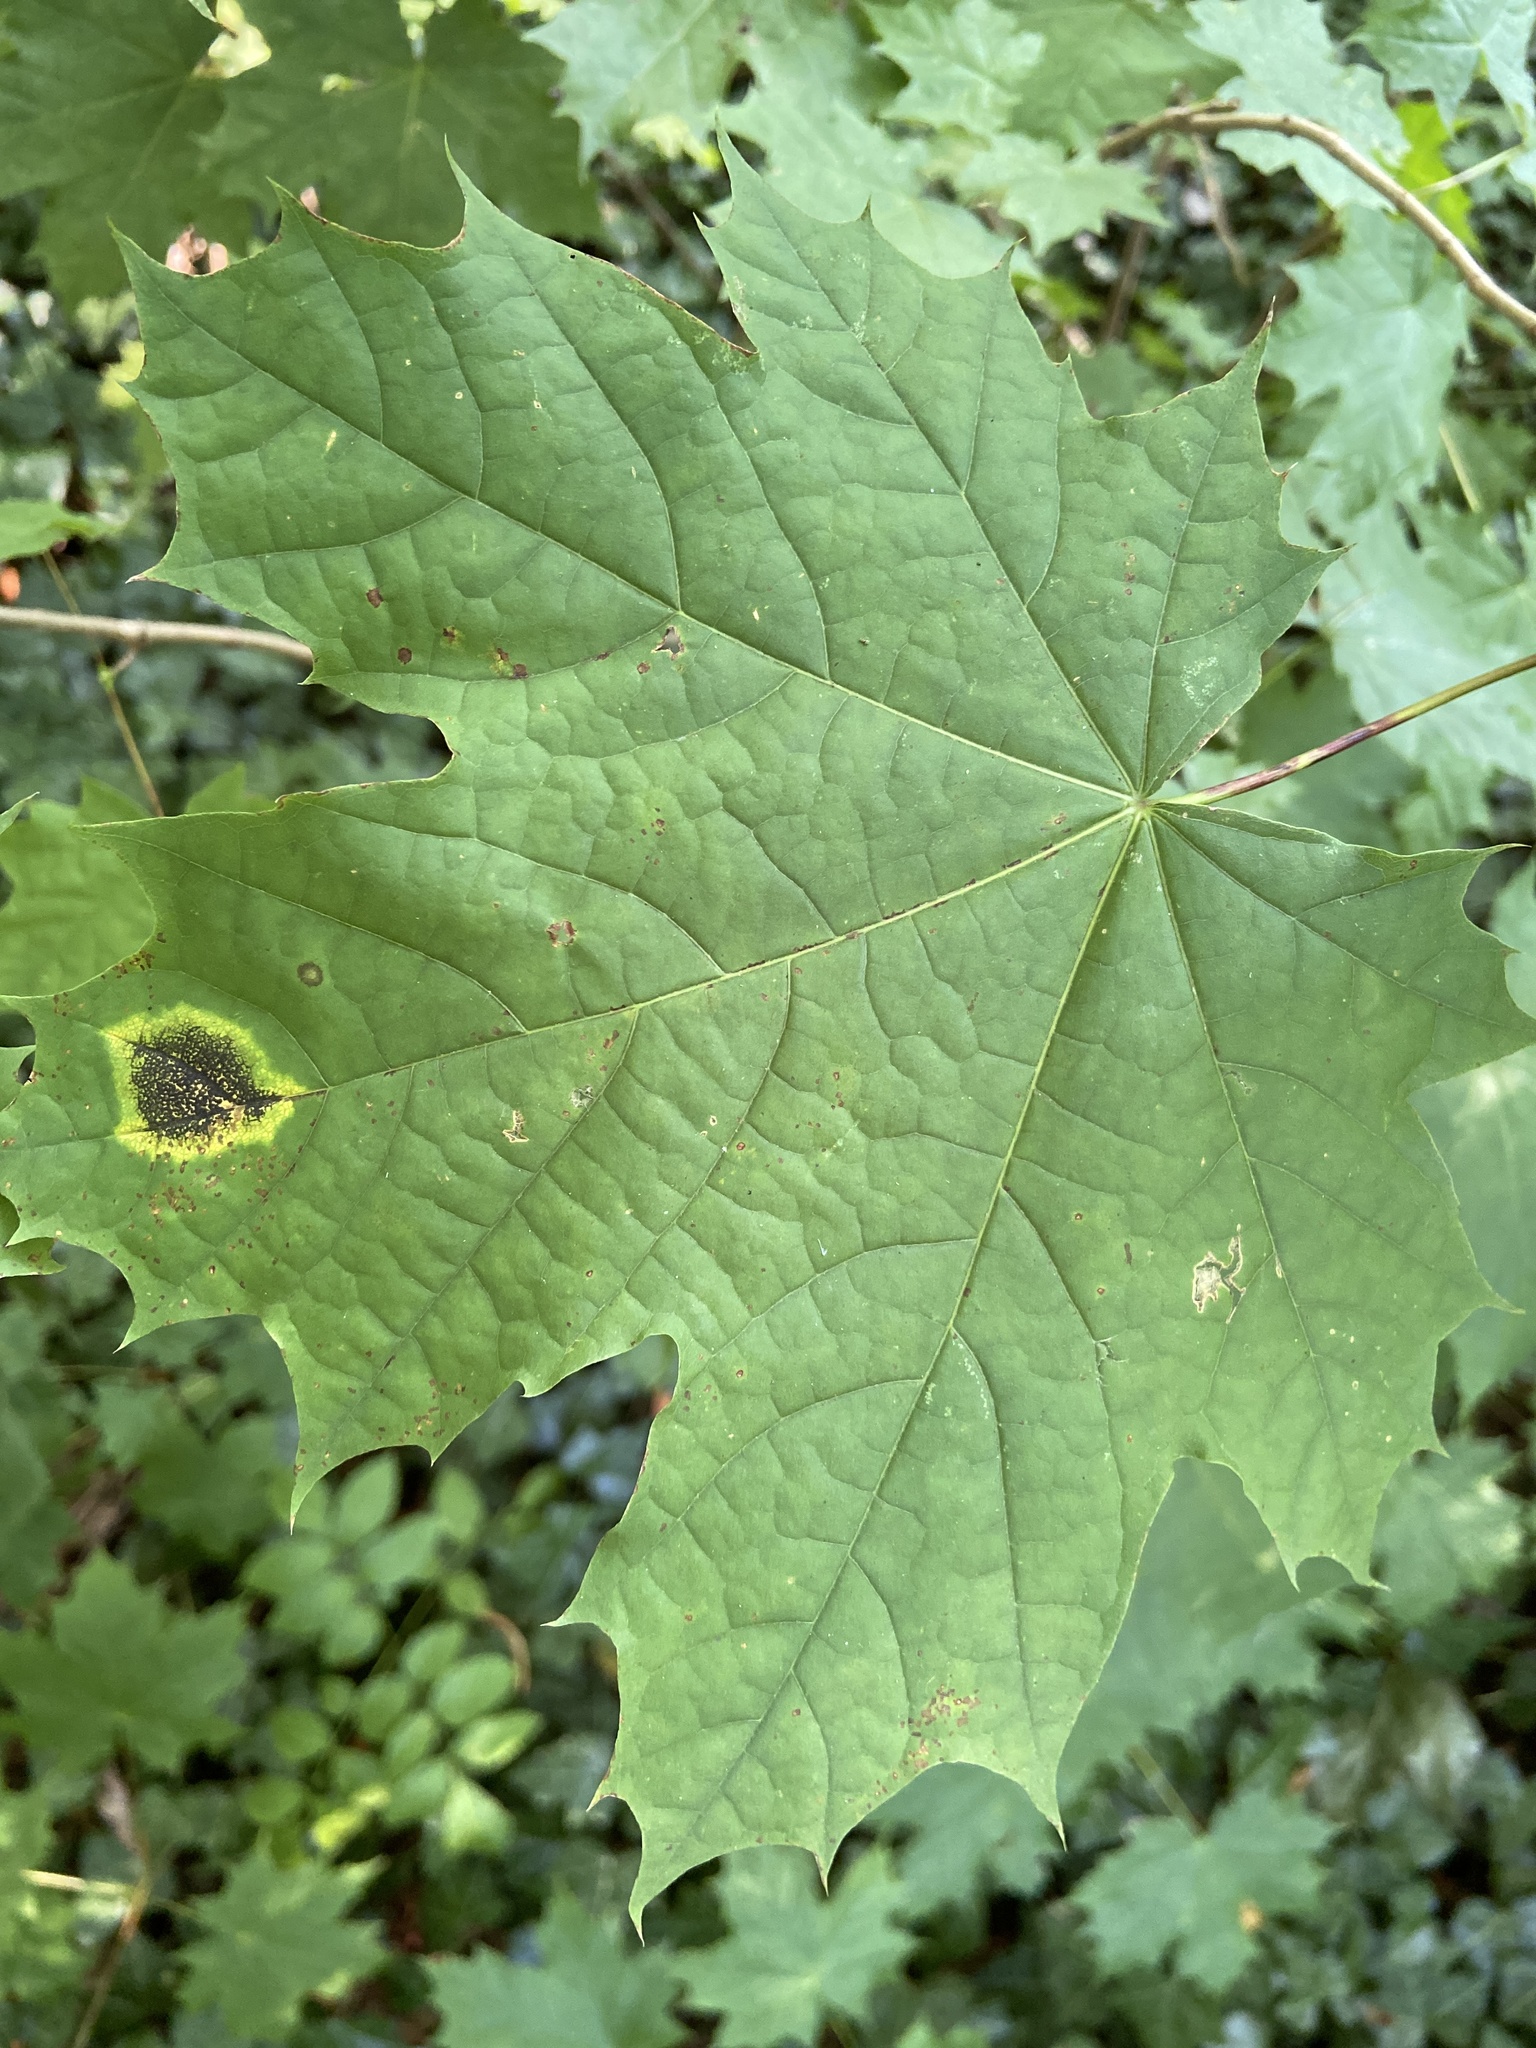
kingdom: Fungi
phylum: Ascomycota
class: Leotiomycetes
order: Rhytismatales
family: Rhytismataceae
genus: Rhytisma
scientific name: Rhytisma acerinum
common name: European tar spot
